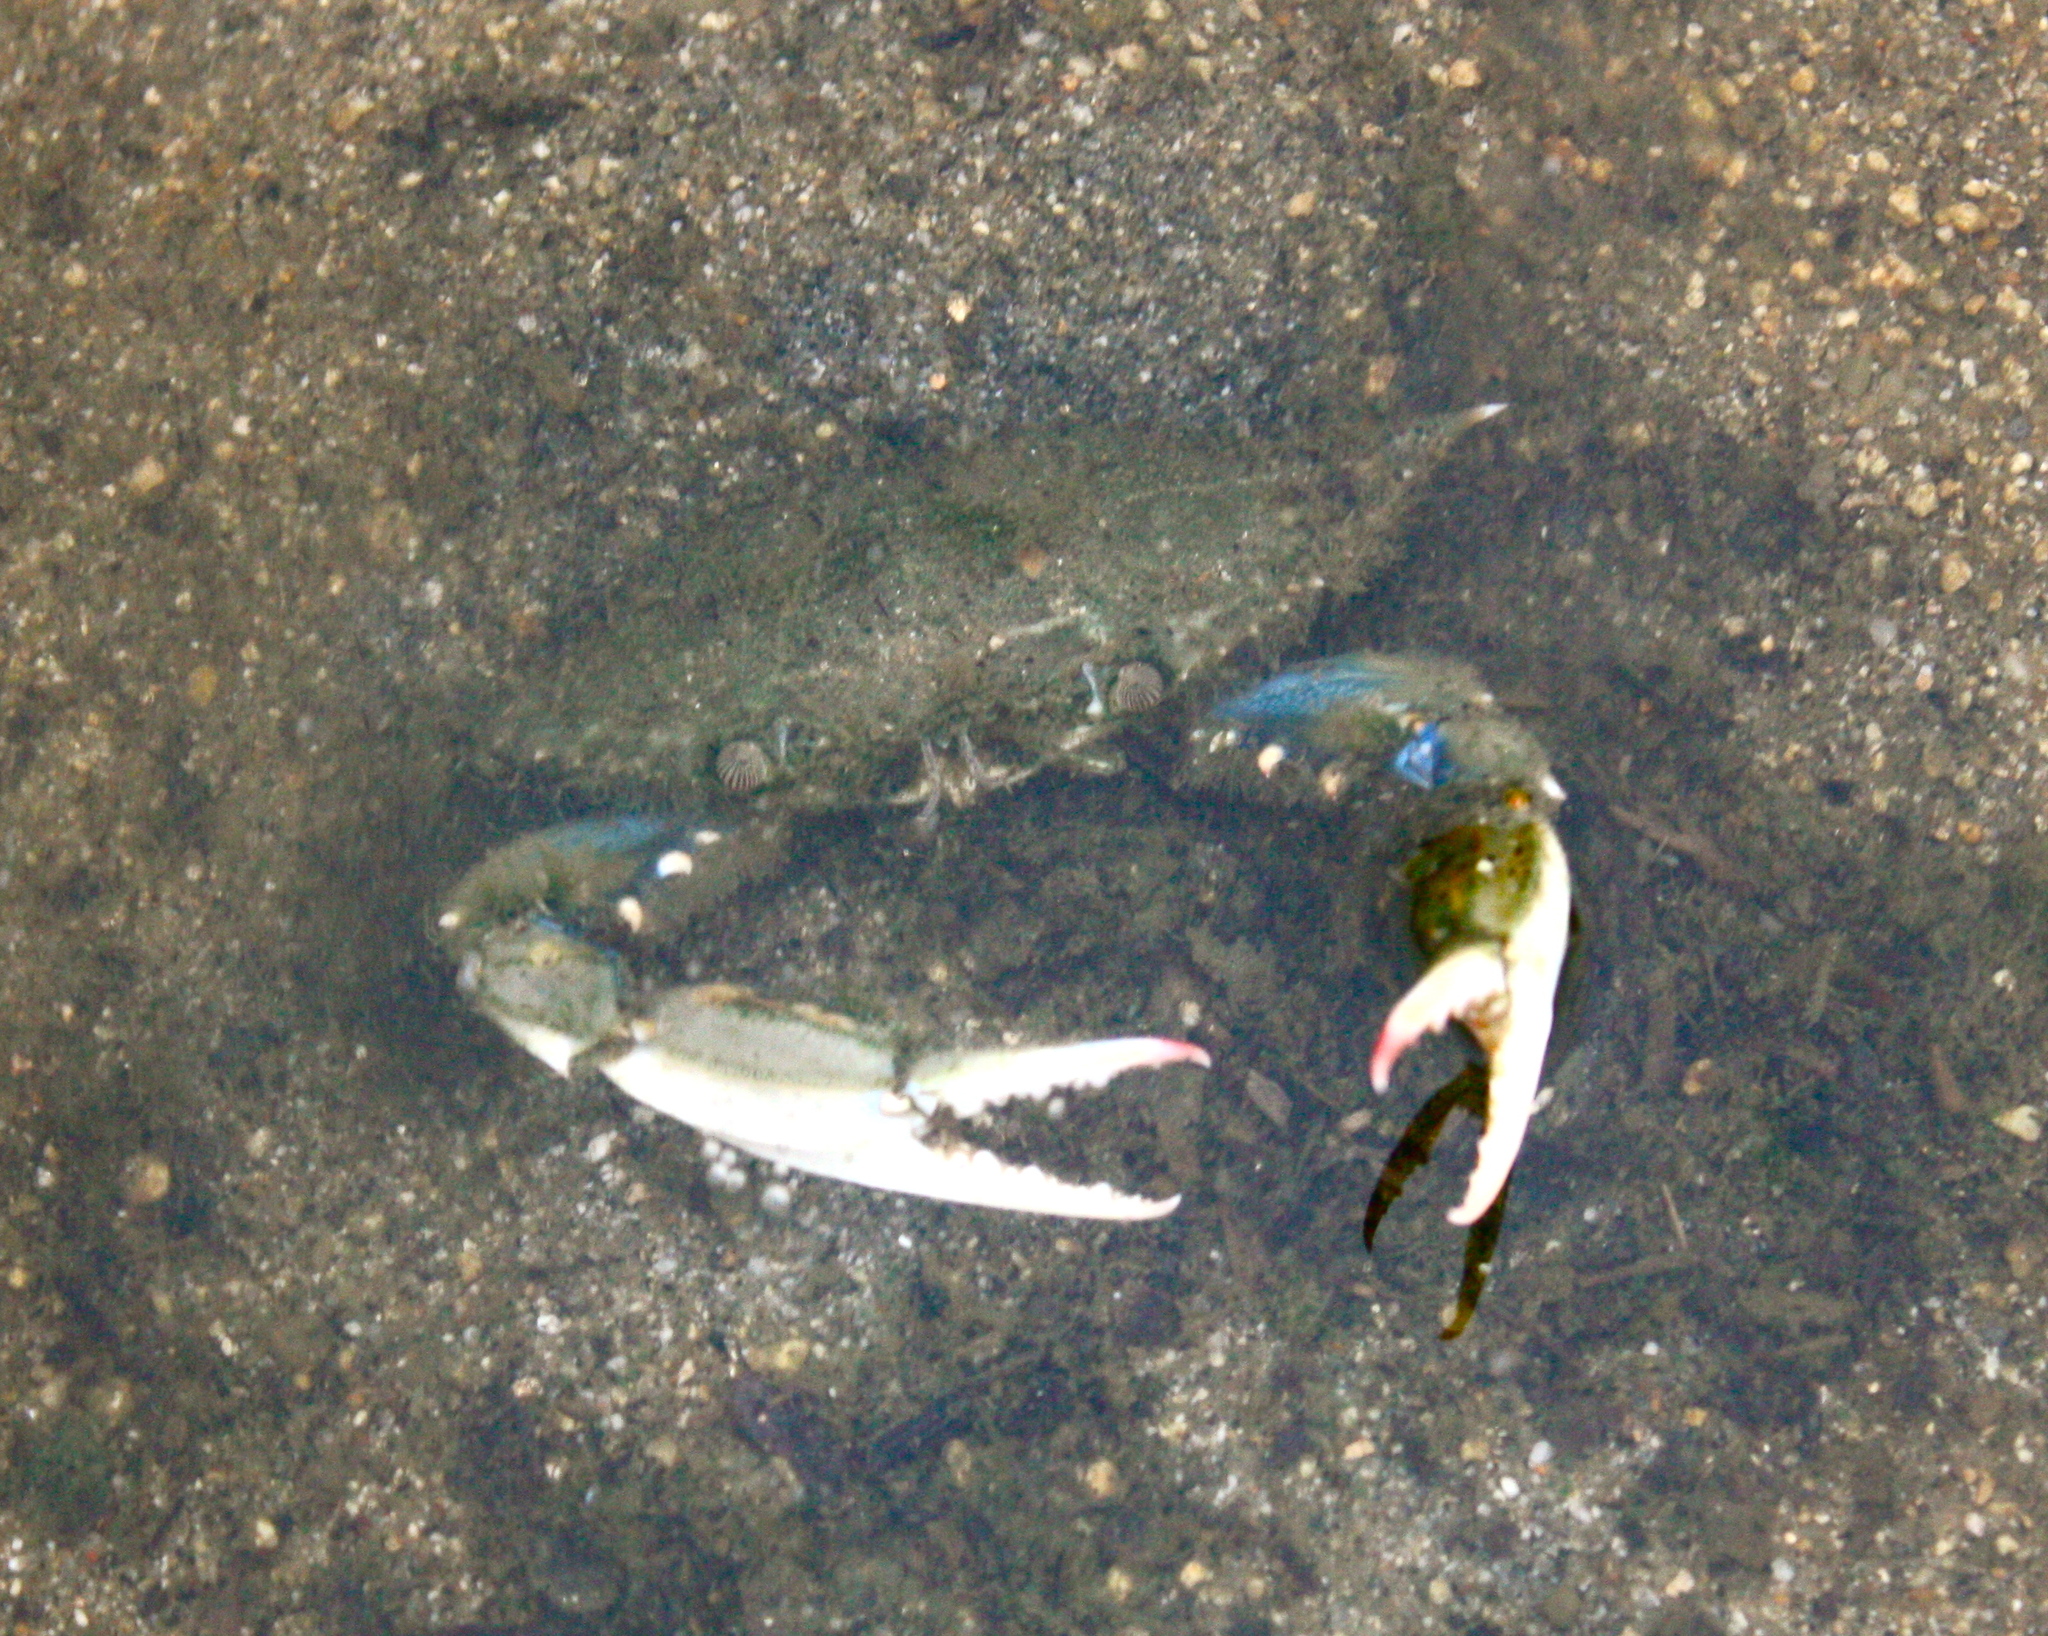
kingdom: Animalia
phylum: Arthropoda
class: Malacostraca
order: Decapoda
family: Portunidae
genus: Callinectes
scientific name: Callinectes sapidus
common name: Blue crab
